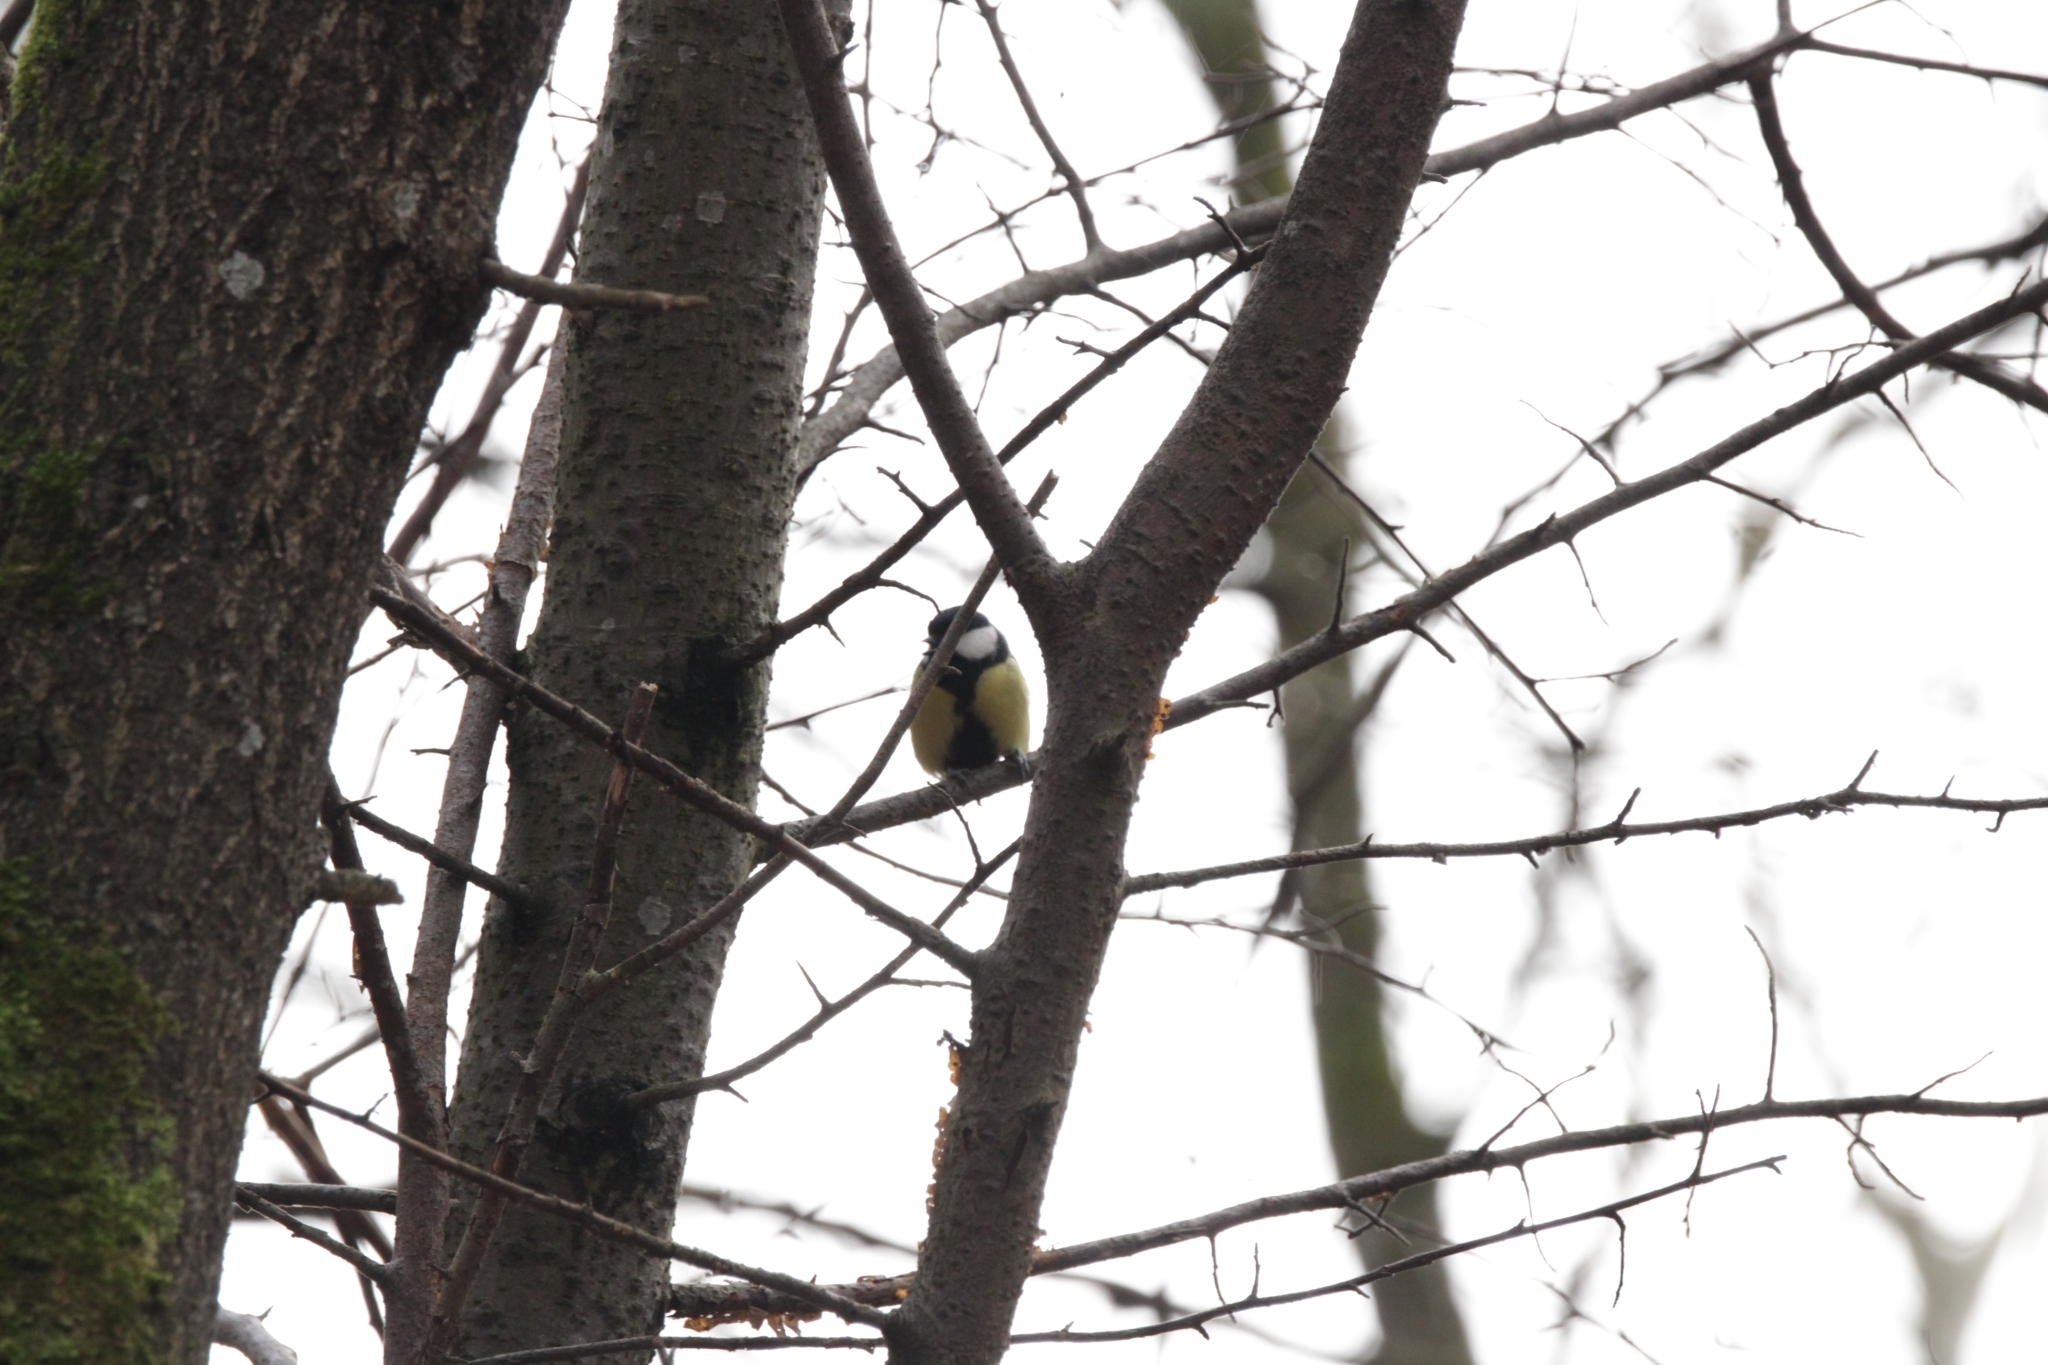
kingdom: Animalia
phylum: Chordata
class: Aves
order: Passeriformes
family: Paridae
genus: Parus
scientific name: Parus major
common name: Great tit
